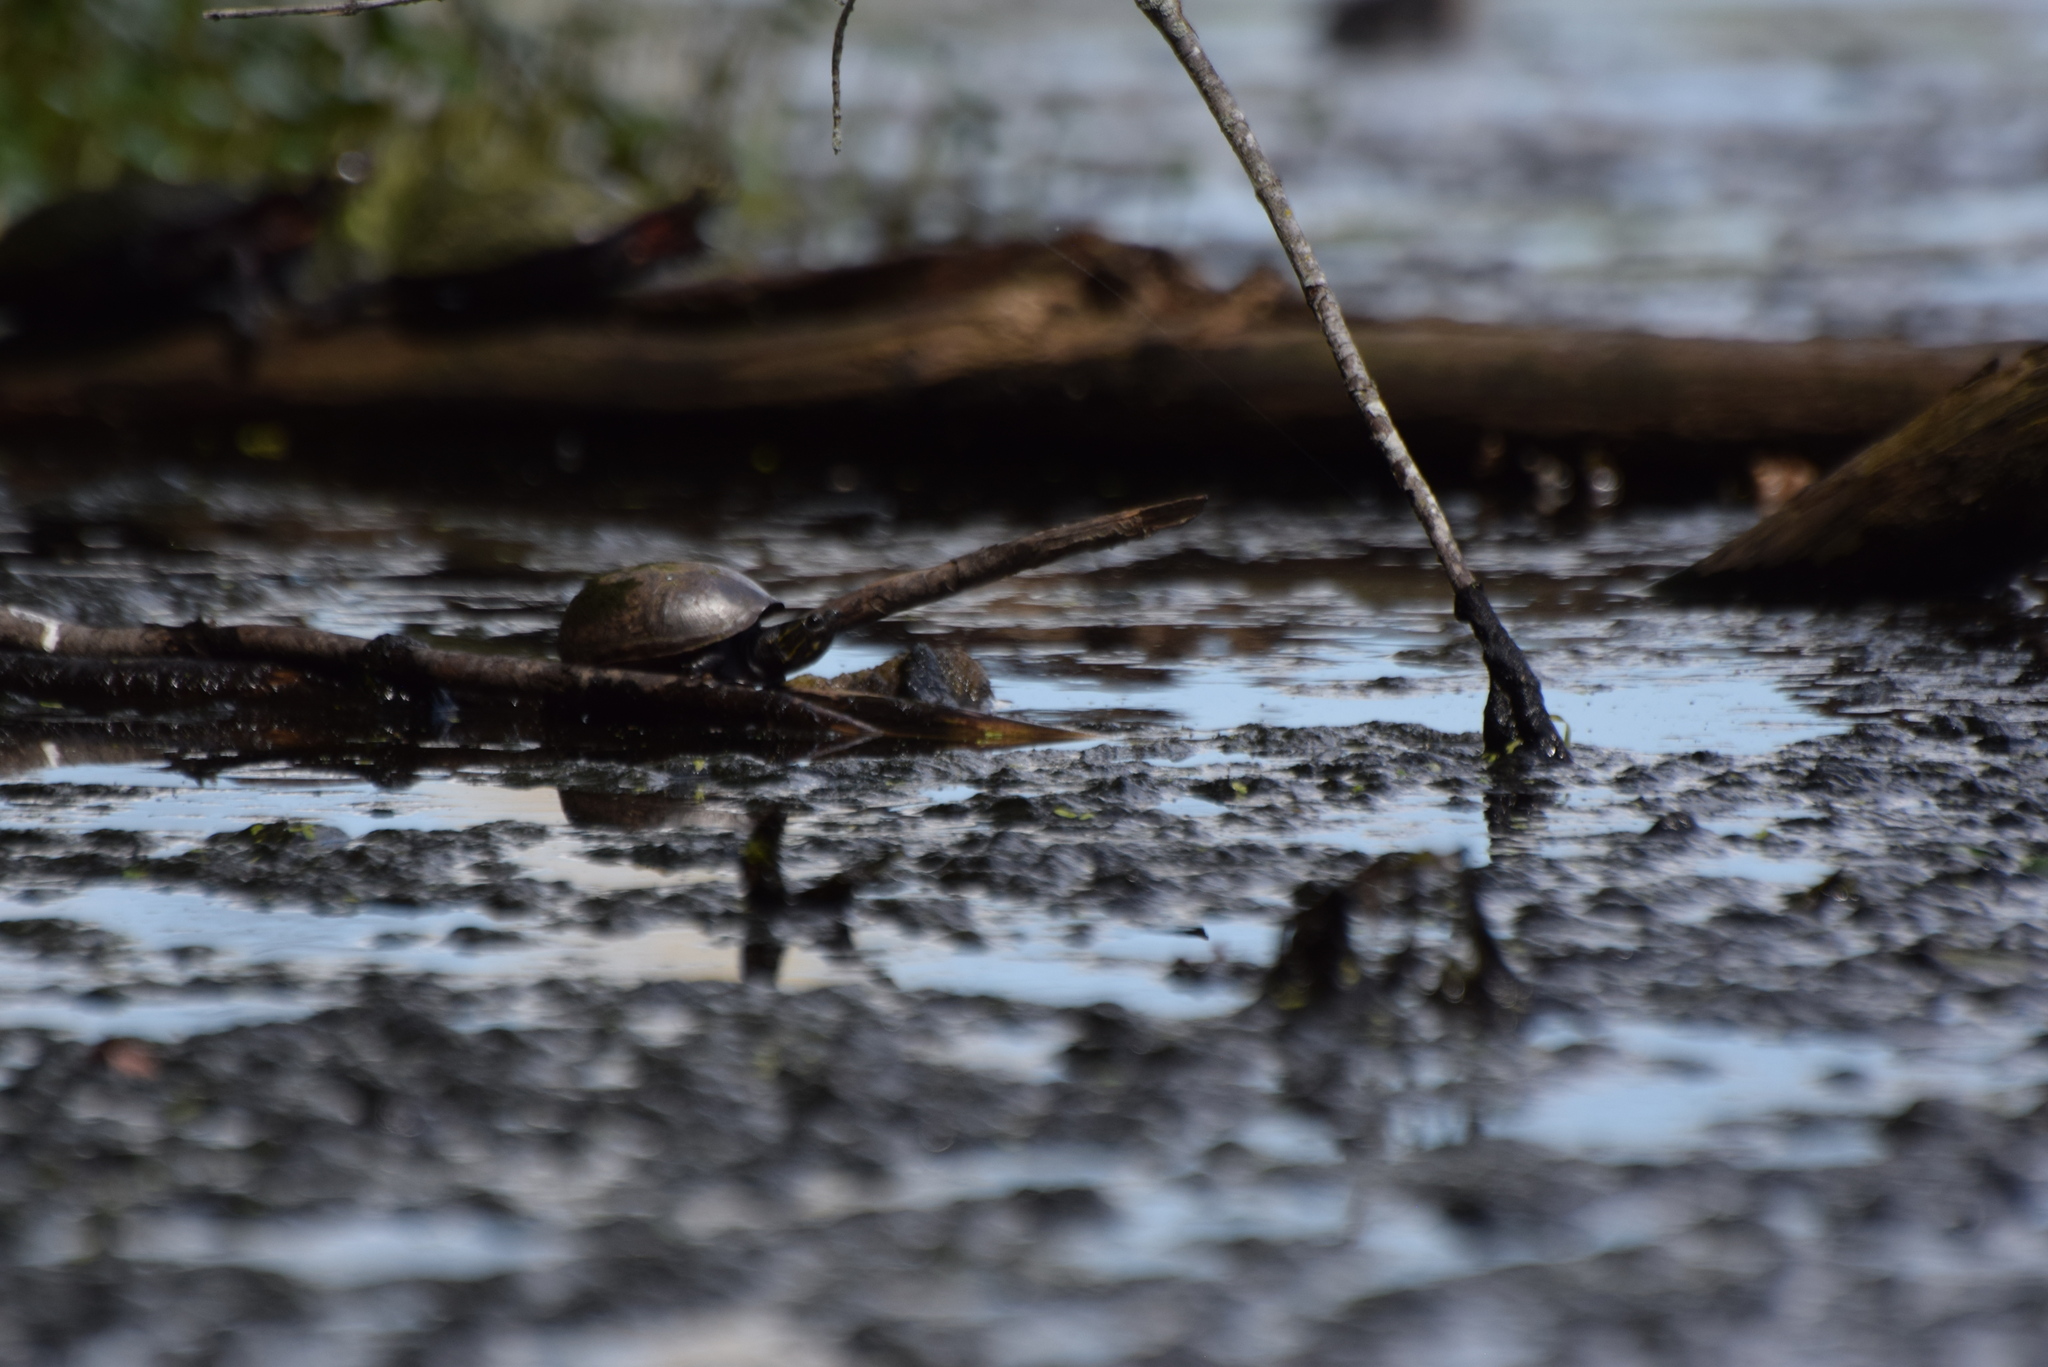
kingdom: Animalia
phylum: Chordata
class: Testudines
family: Kinosternidae
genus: Sternotherus
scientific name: Sternotherus odoratus
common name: Common musk turtle
